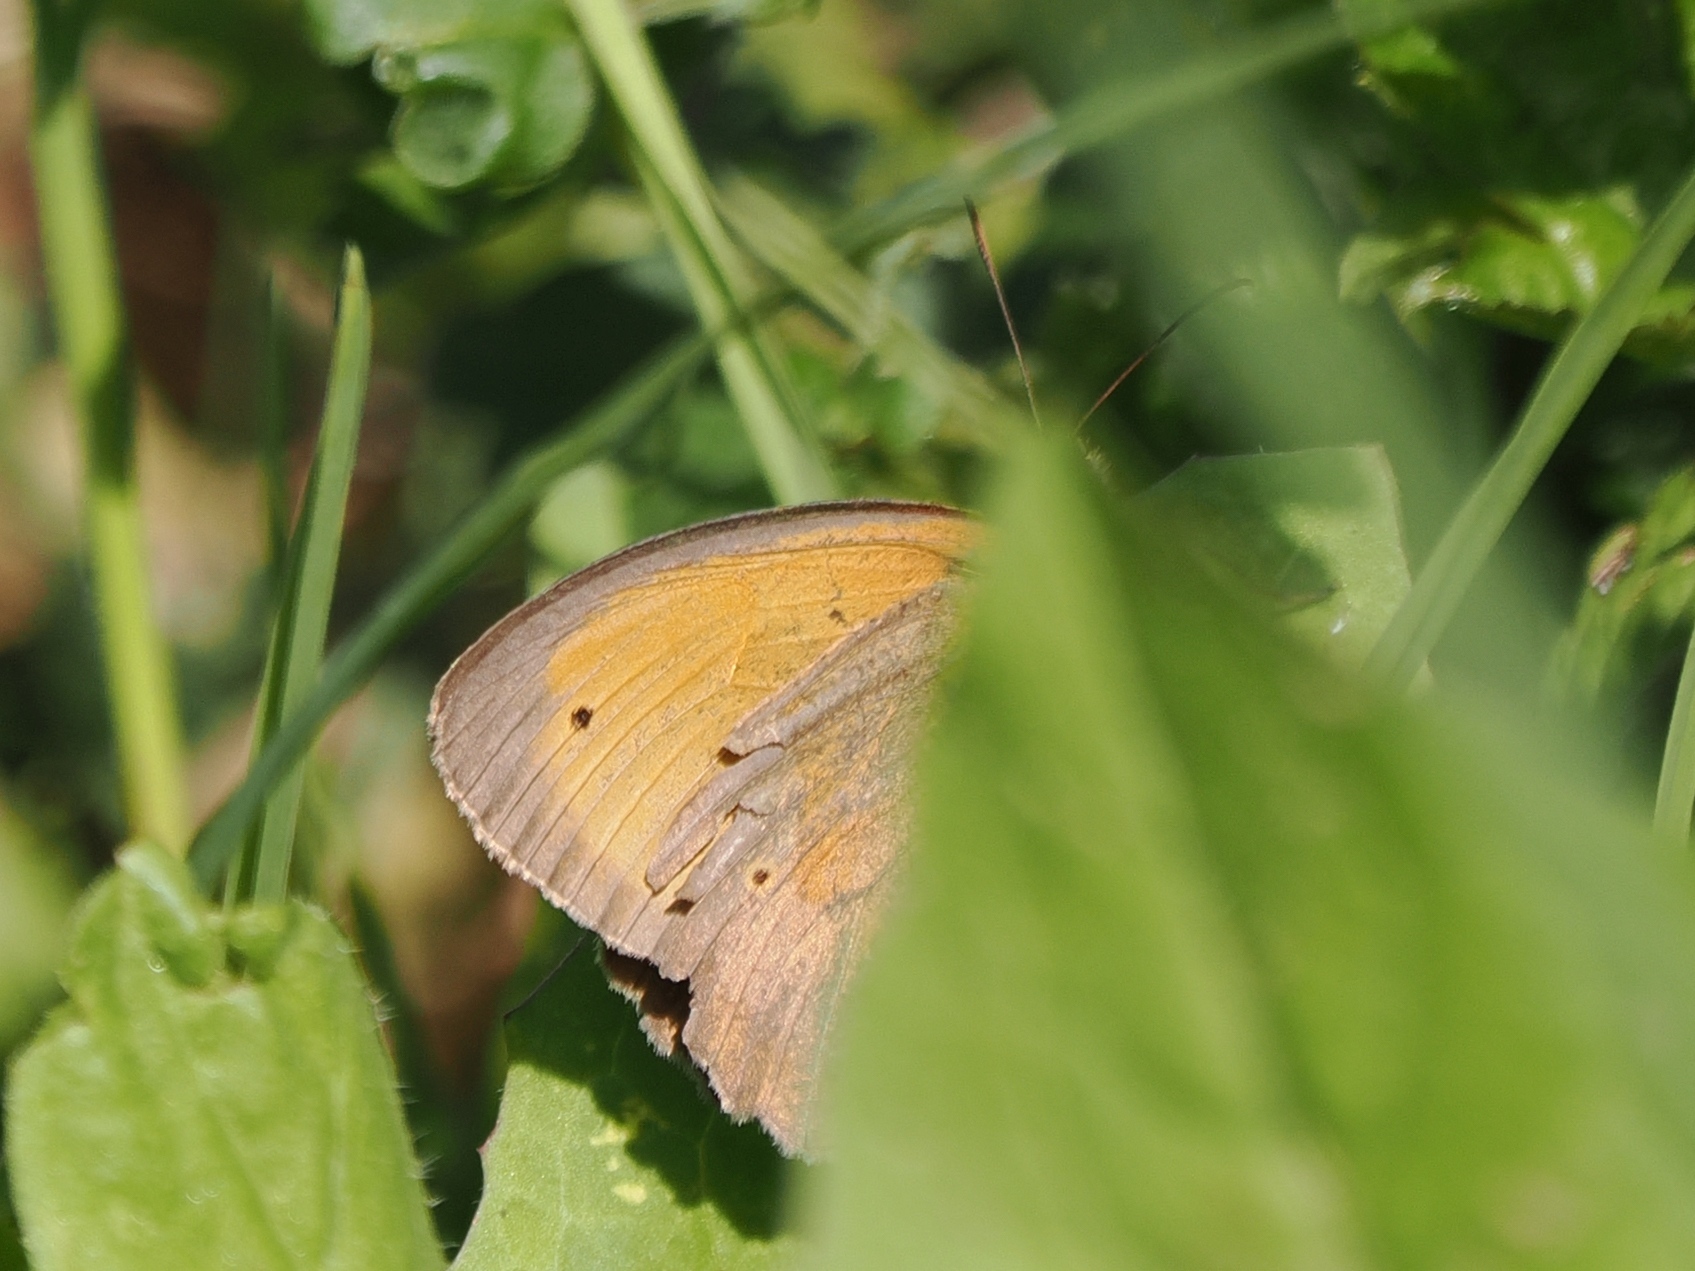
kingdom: Animalia
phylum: Arthropoda
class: Insecta
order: Lepidoptera
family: Nymphalidae
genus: Maniola
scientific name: Maniola jurtina
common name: Meadow brown
